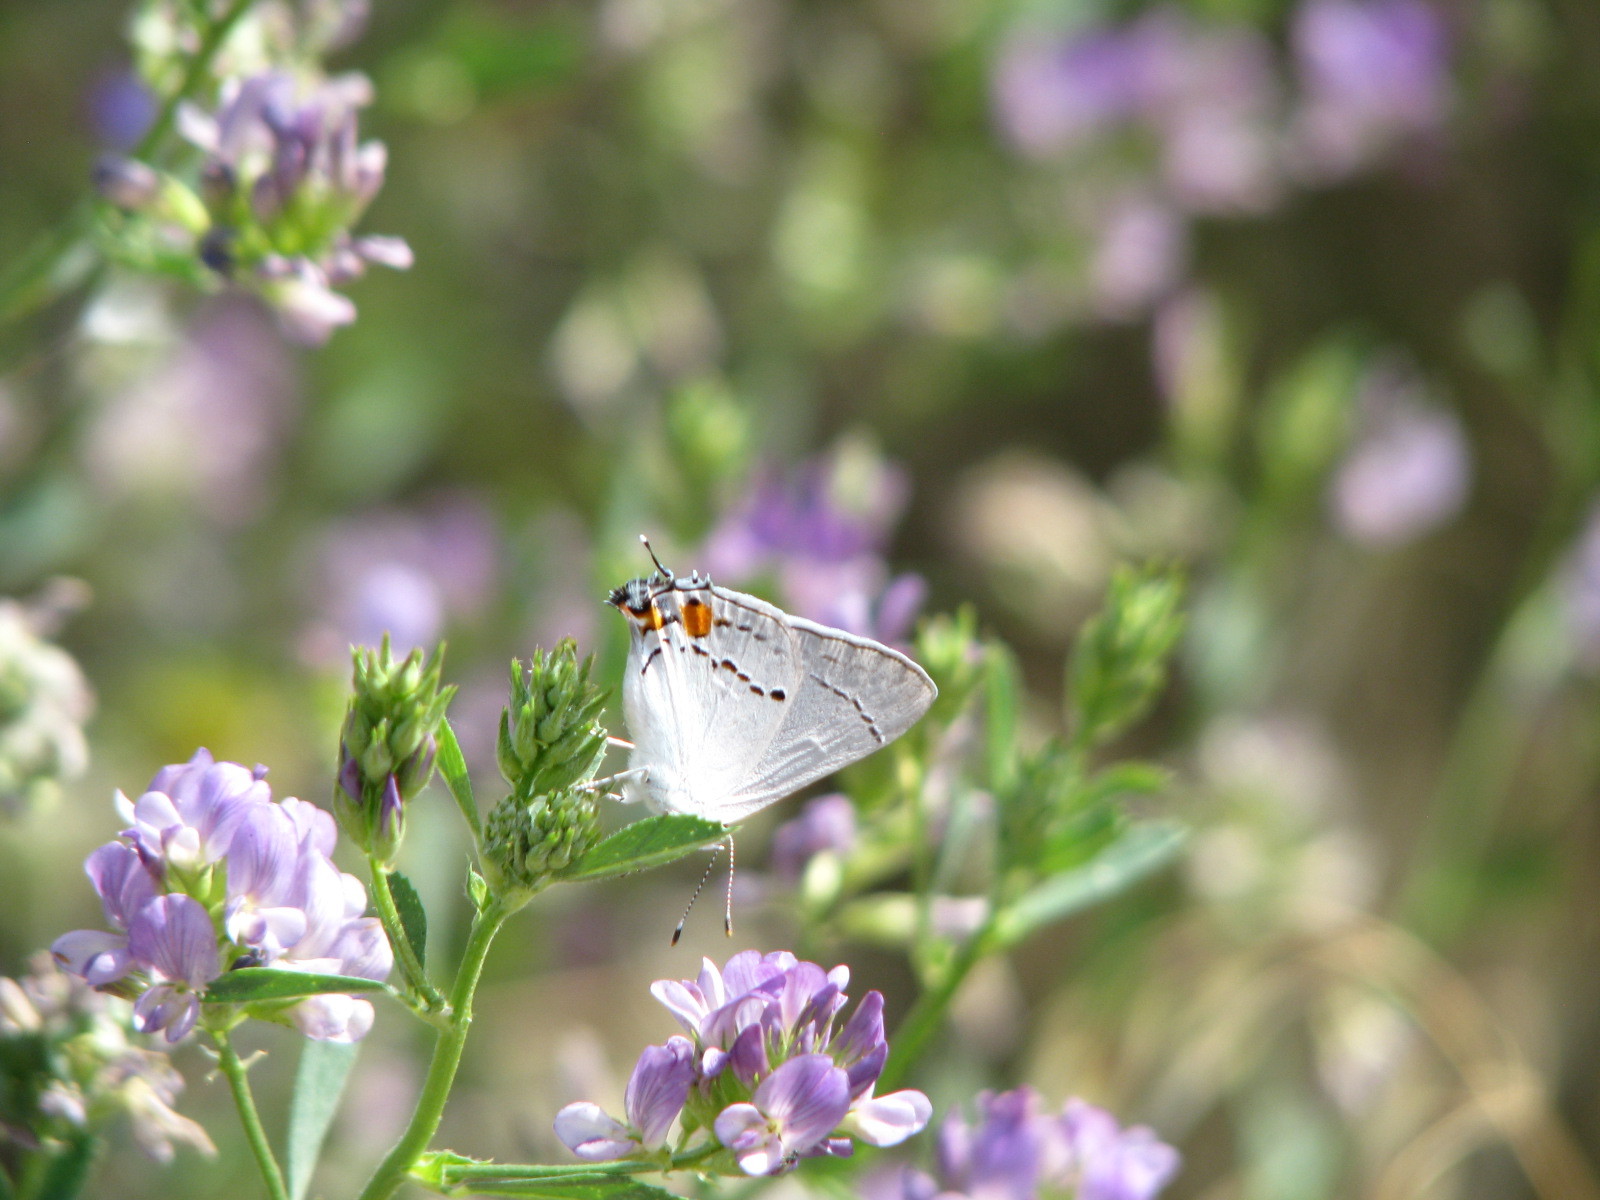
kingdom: Animalia
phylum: Arthropoda
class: Insecta
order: Lepidoptera
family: Lycaenidae
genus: Strymon
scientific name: Strymon melinus
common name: Gray hairstreak
